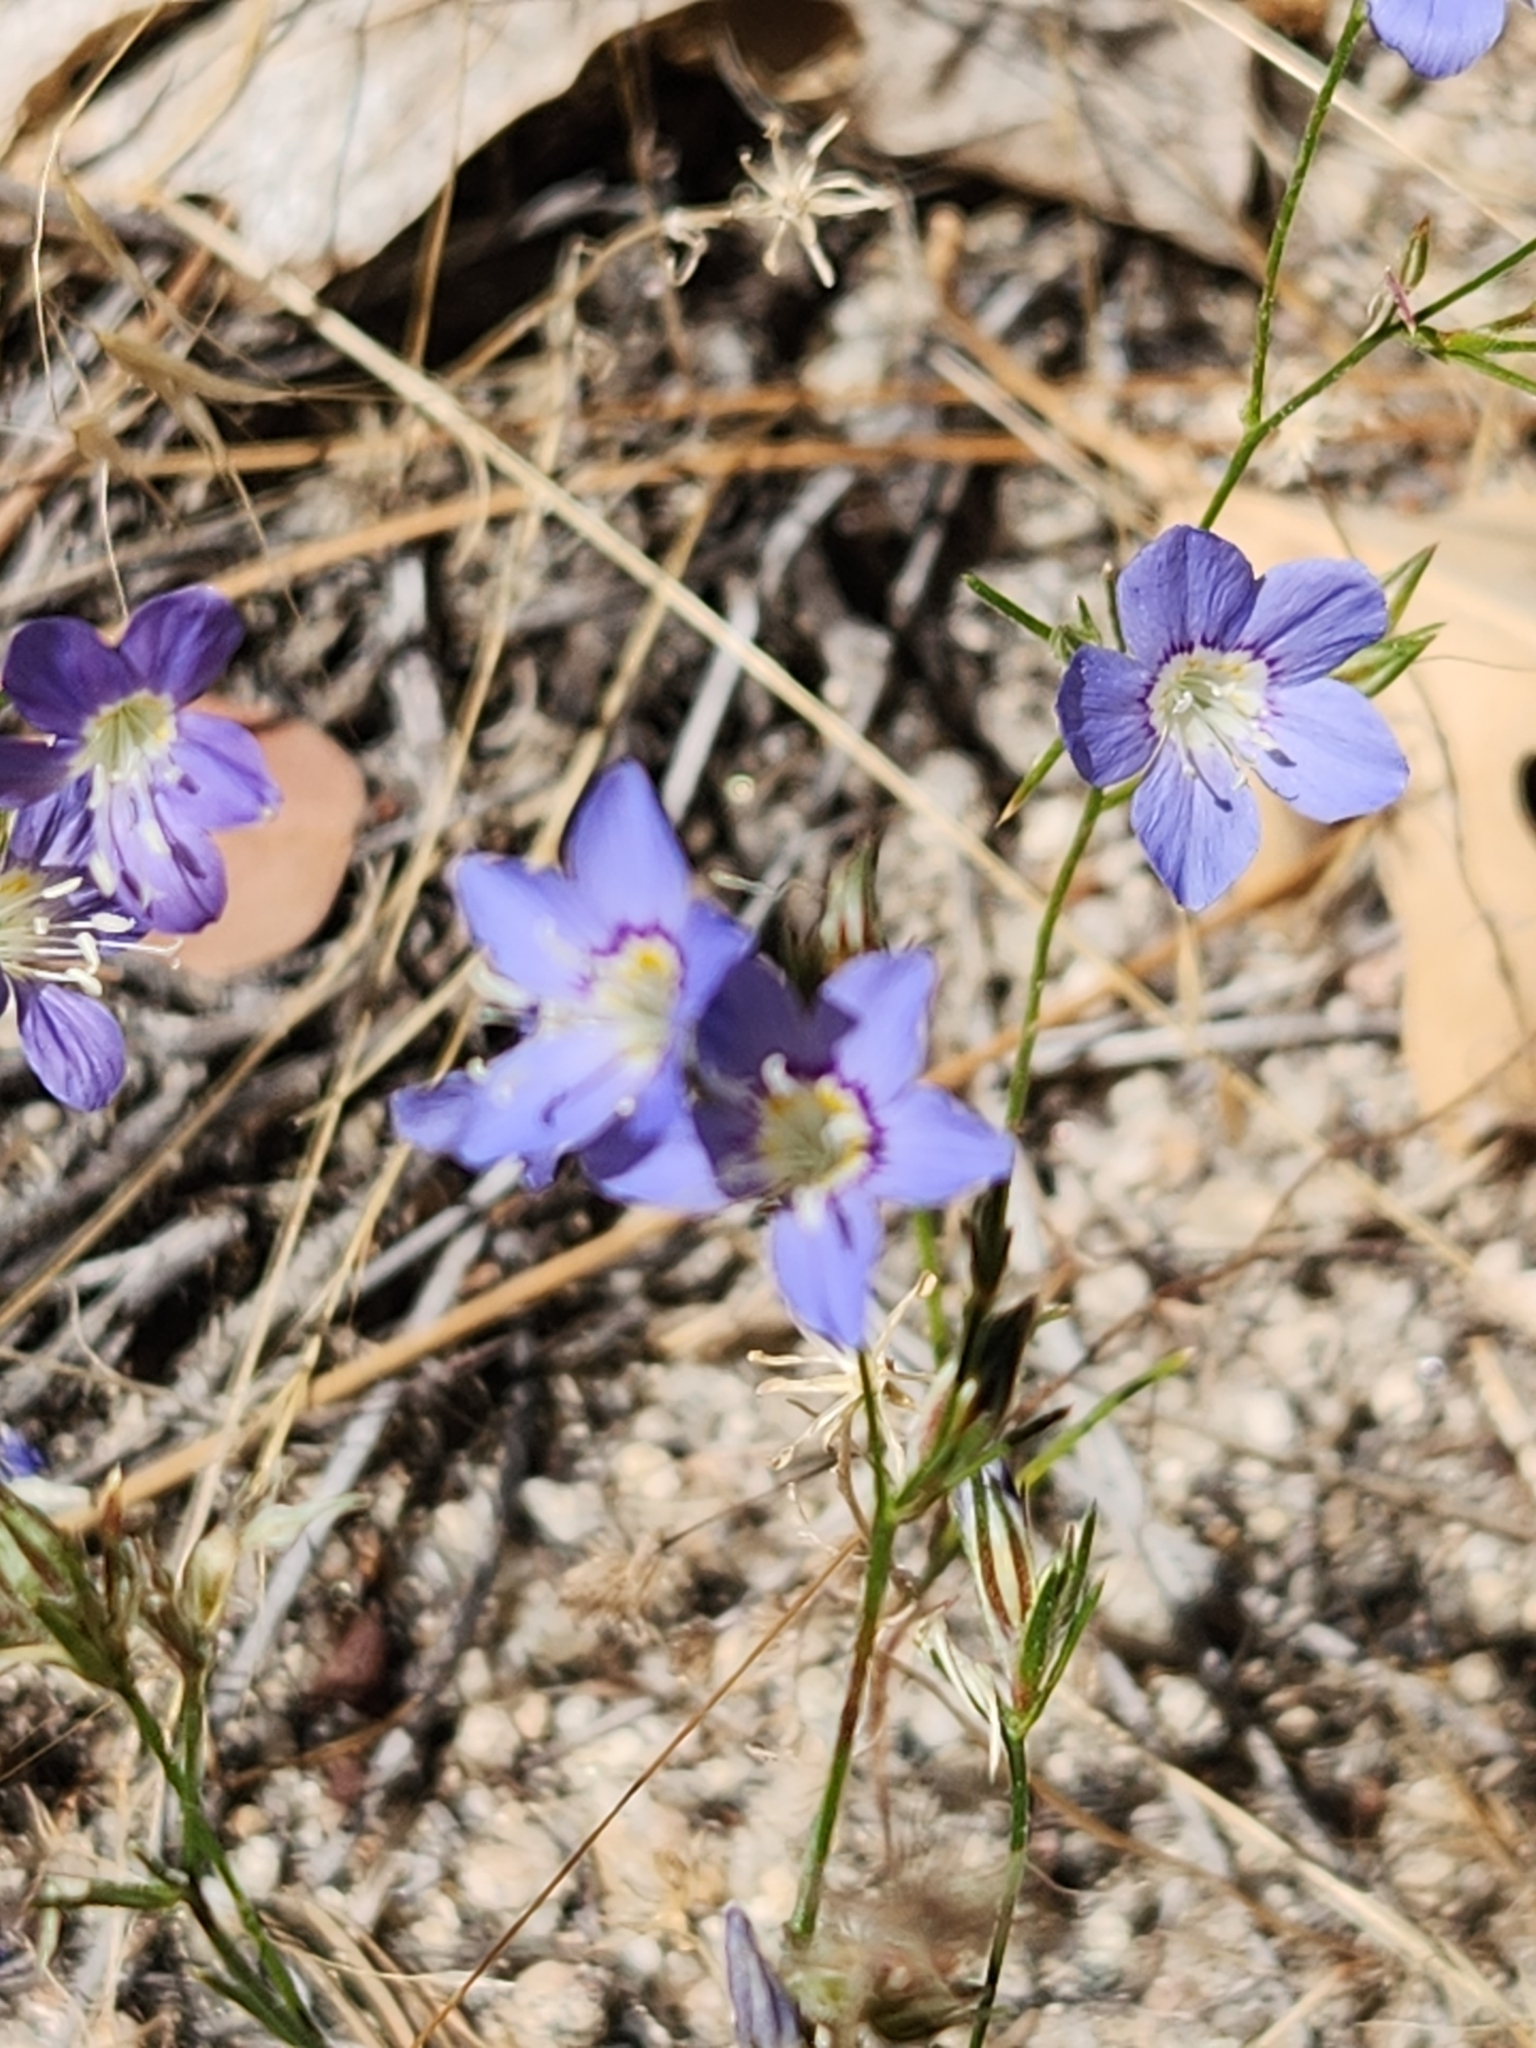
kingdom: Plantae
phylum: Tracheophyta
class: Magnoliopsida
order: Ericales
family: Polemoniaceae
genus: Eriastrum
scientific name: Eriastrum sapphirinum
